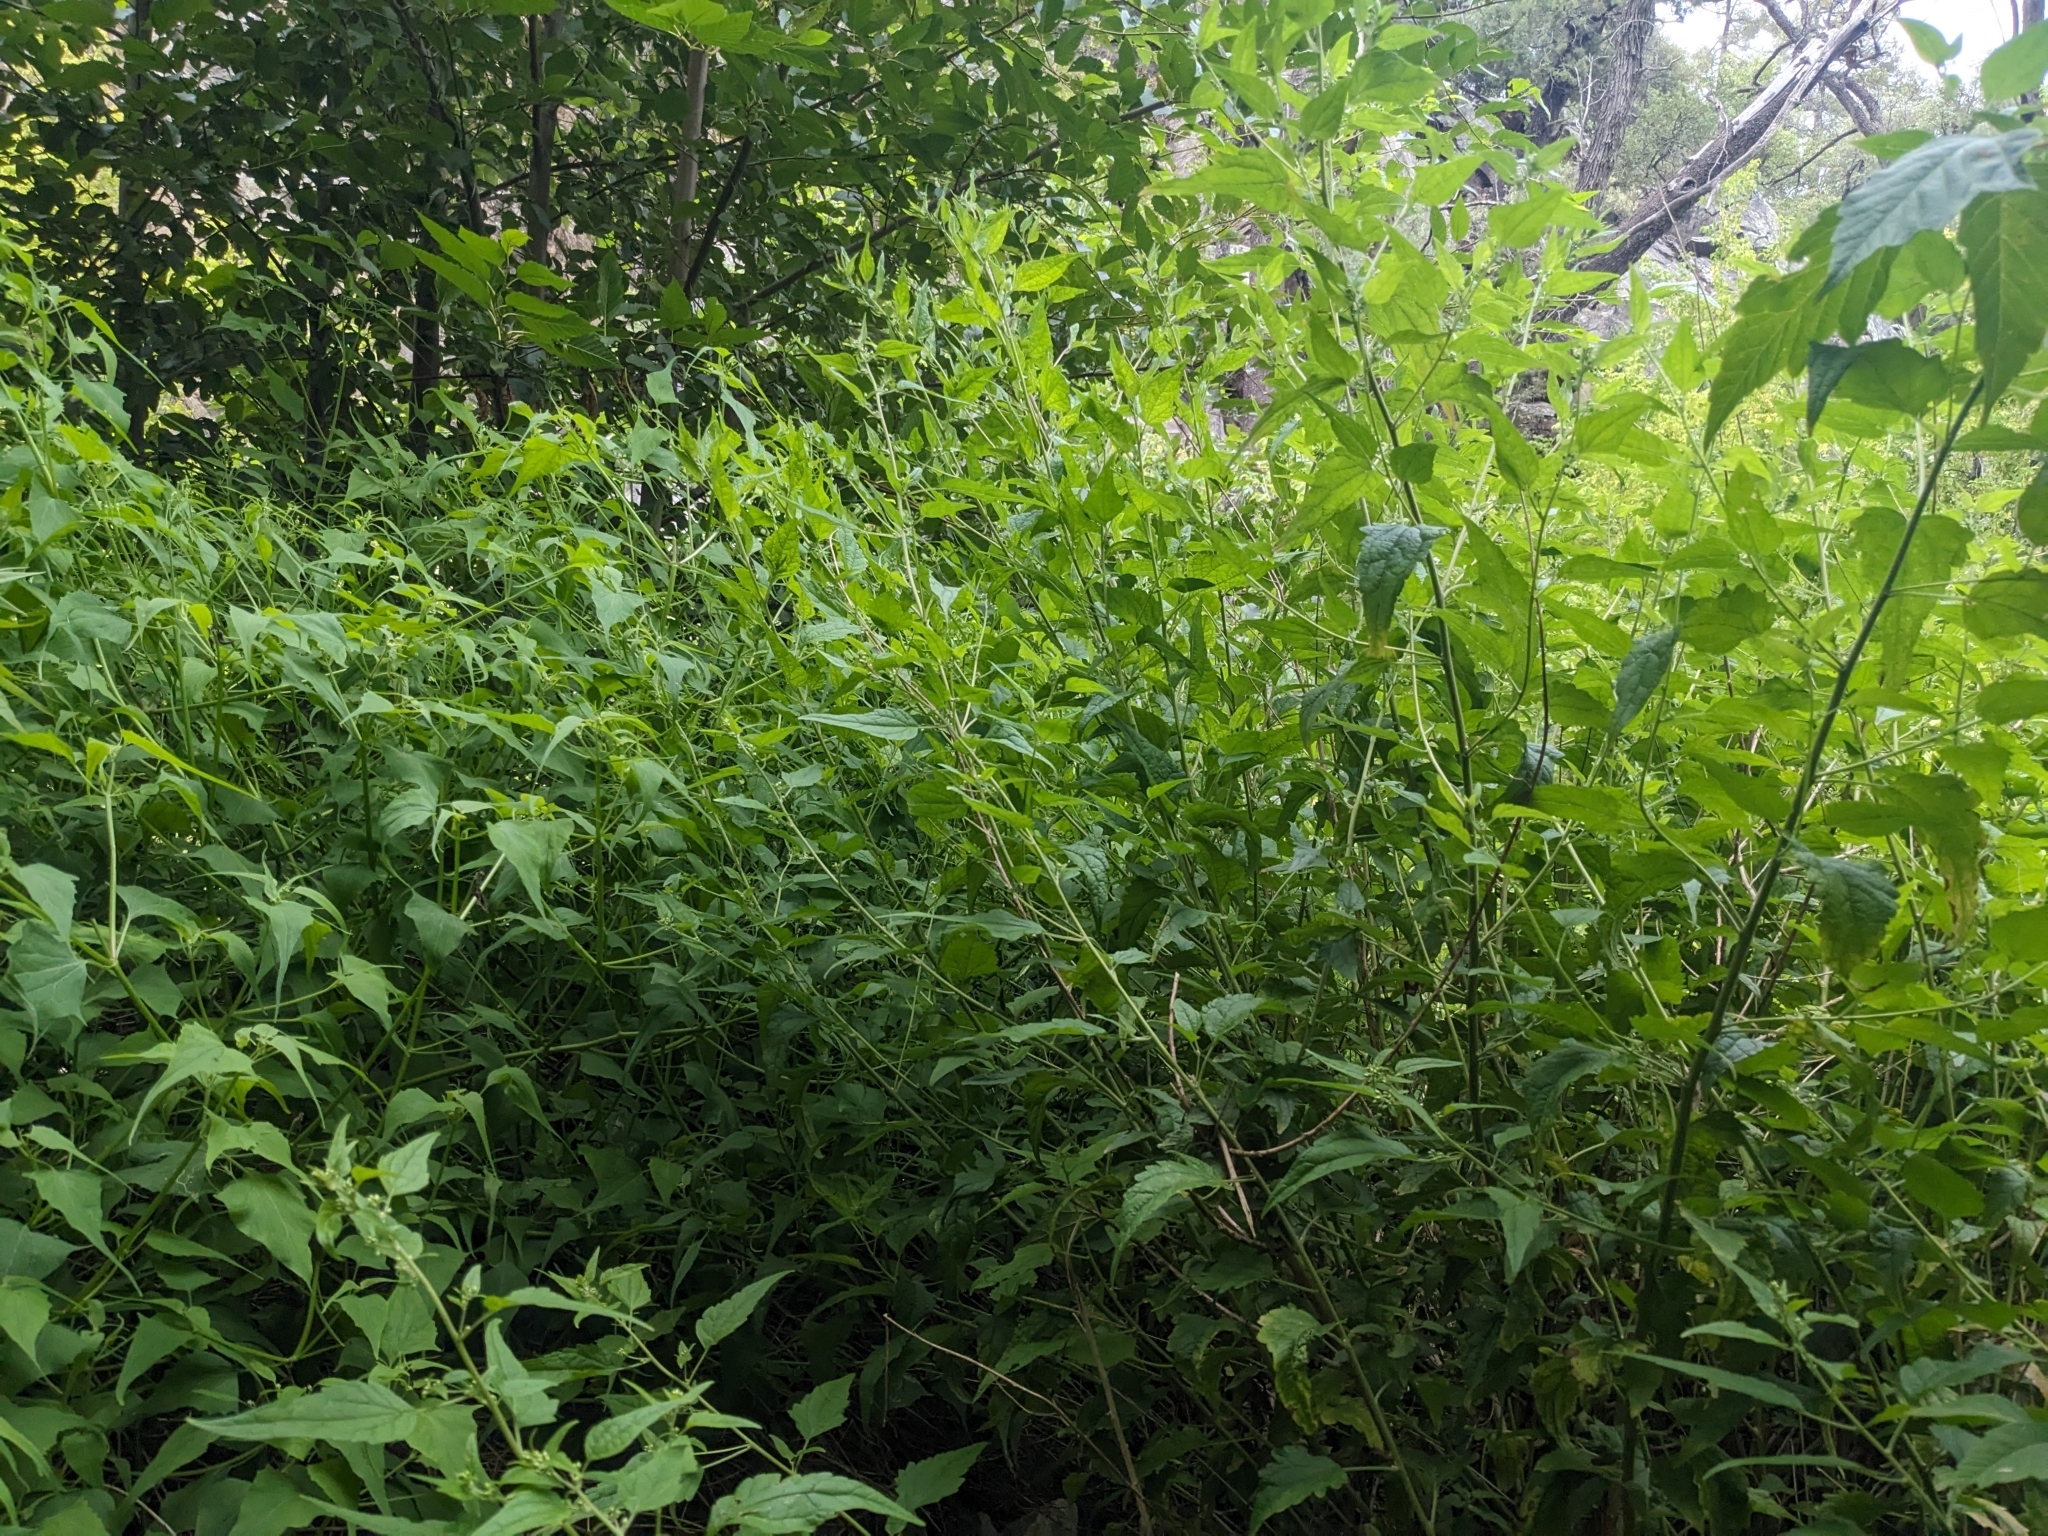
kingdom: Plantae
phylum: Tracheophyta
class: Magnoliopsida
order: Asterales
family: Asteraceae
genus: Brickellia
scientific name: Brickellia rusbyi
